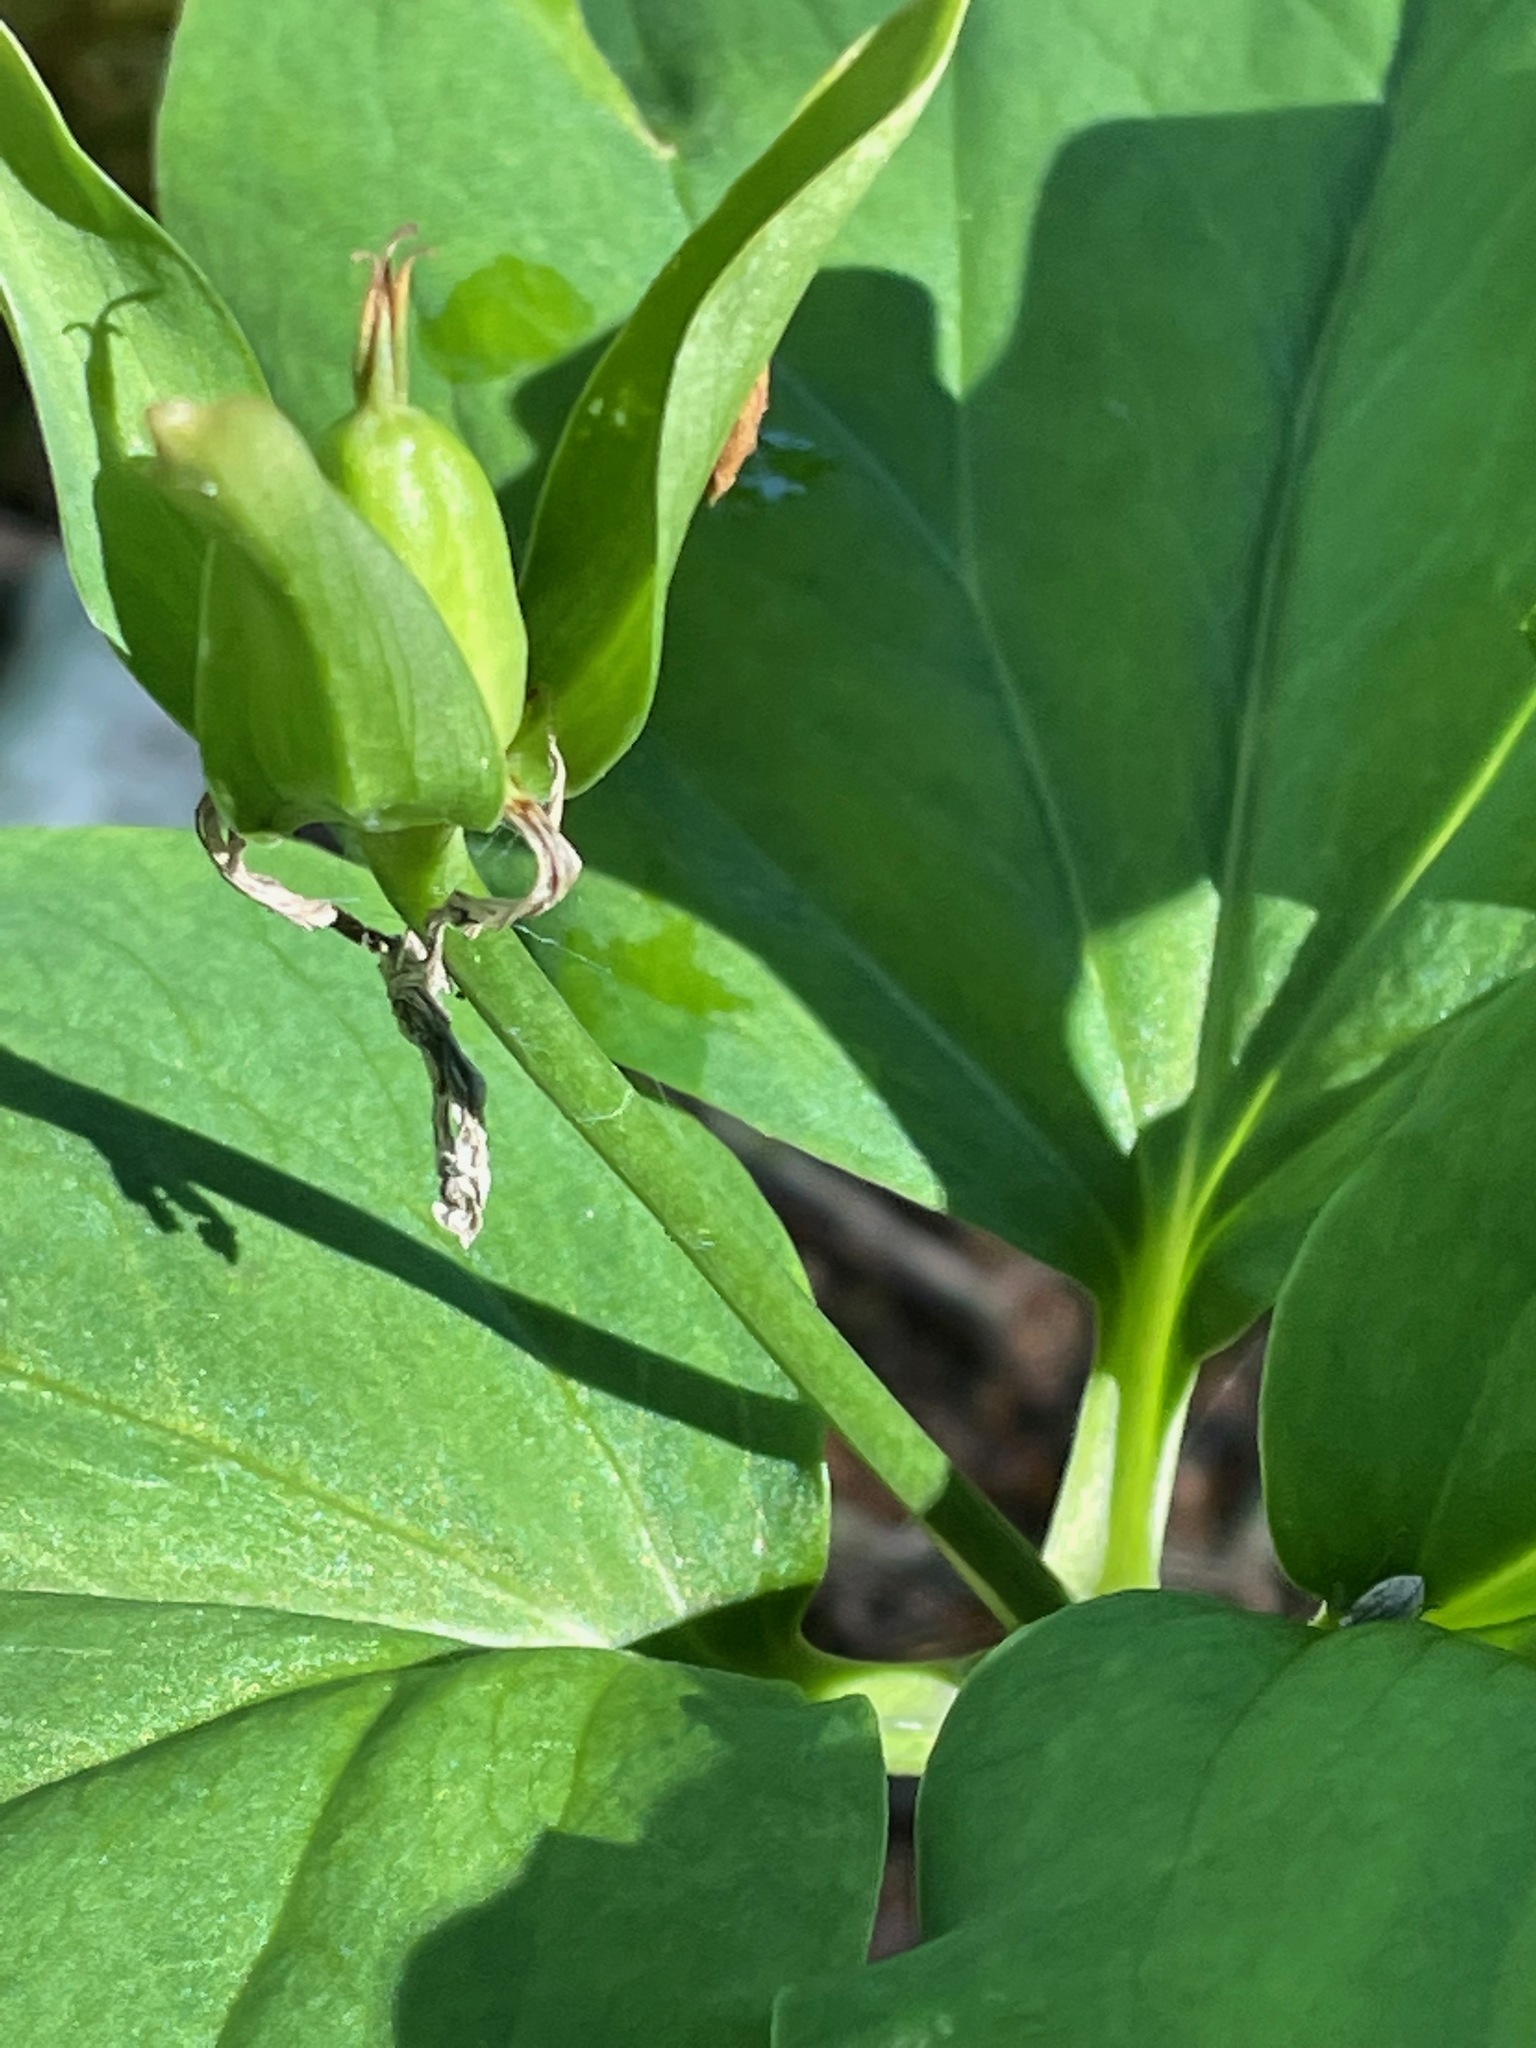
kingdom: Plantae
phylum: Tracheophyta
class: Liliopsida
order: Liliales
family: Melanthiaceae
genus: Trillium
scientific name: Trillium undulatum
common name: Paint trillium
